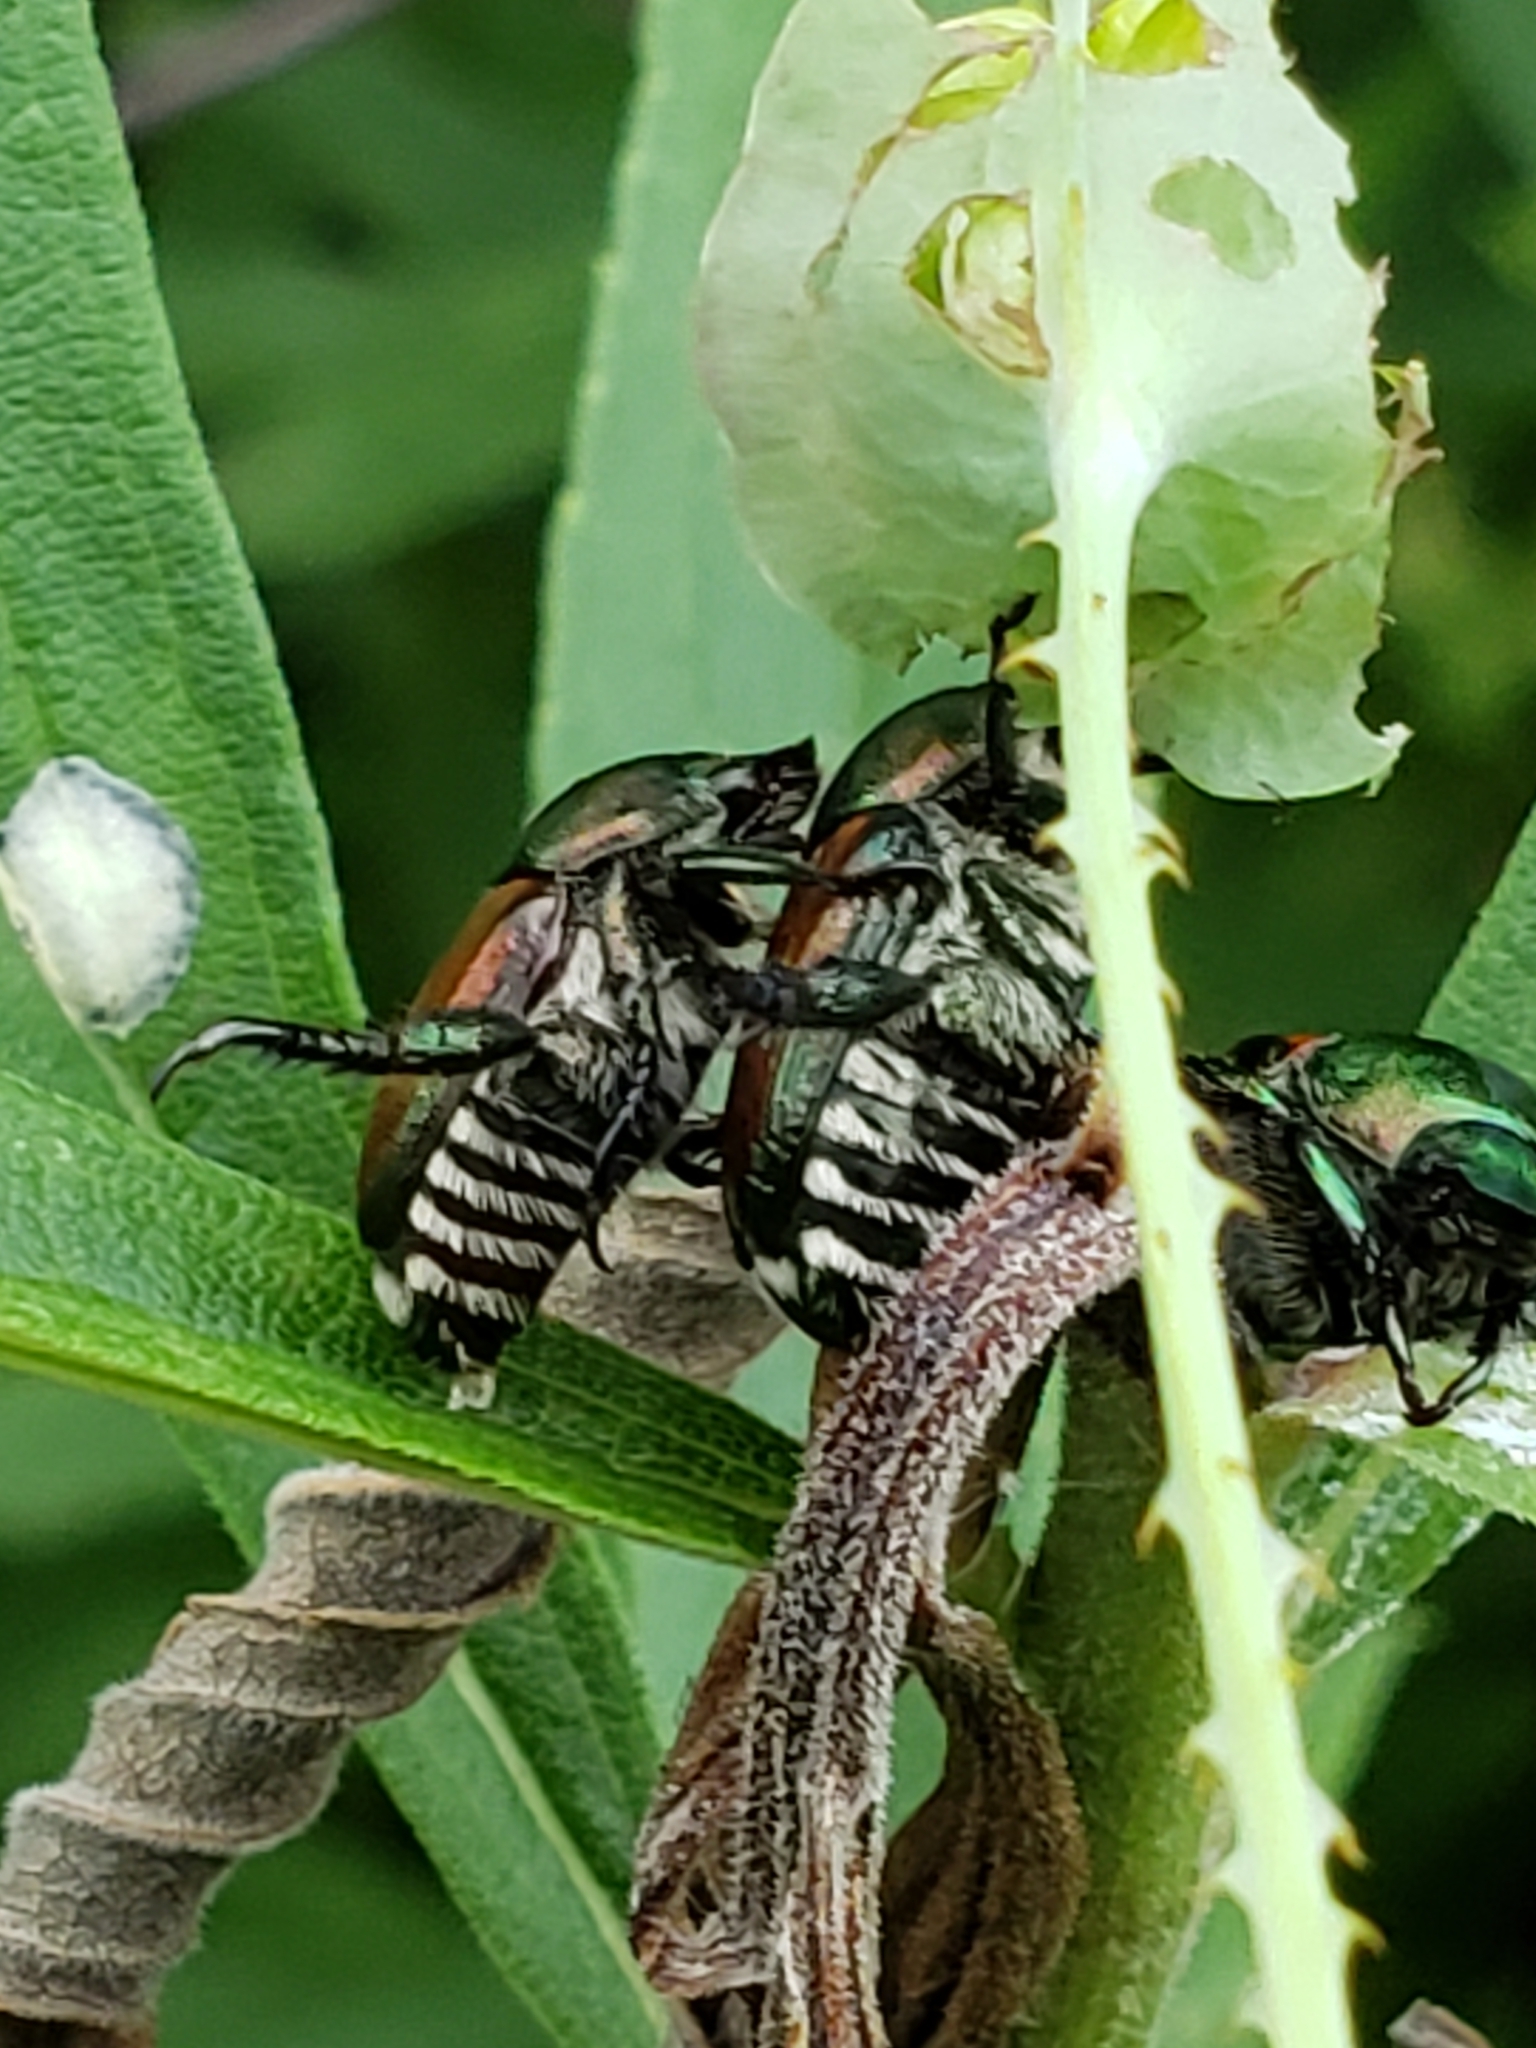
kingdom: Animalia
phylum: Arthropoda
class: Insecta
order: Coleoptera
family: Scarabaeidae
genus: Popillia
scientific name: Popillia japonica
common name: Japanese beetle
